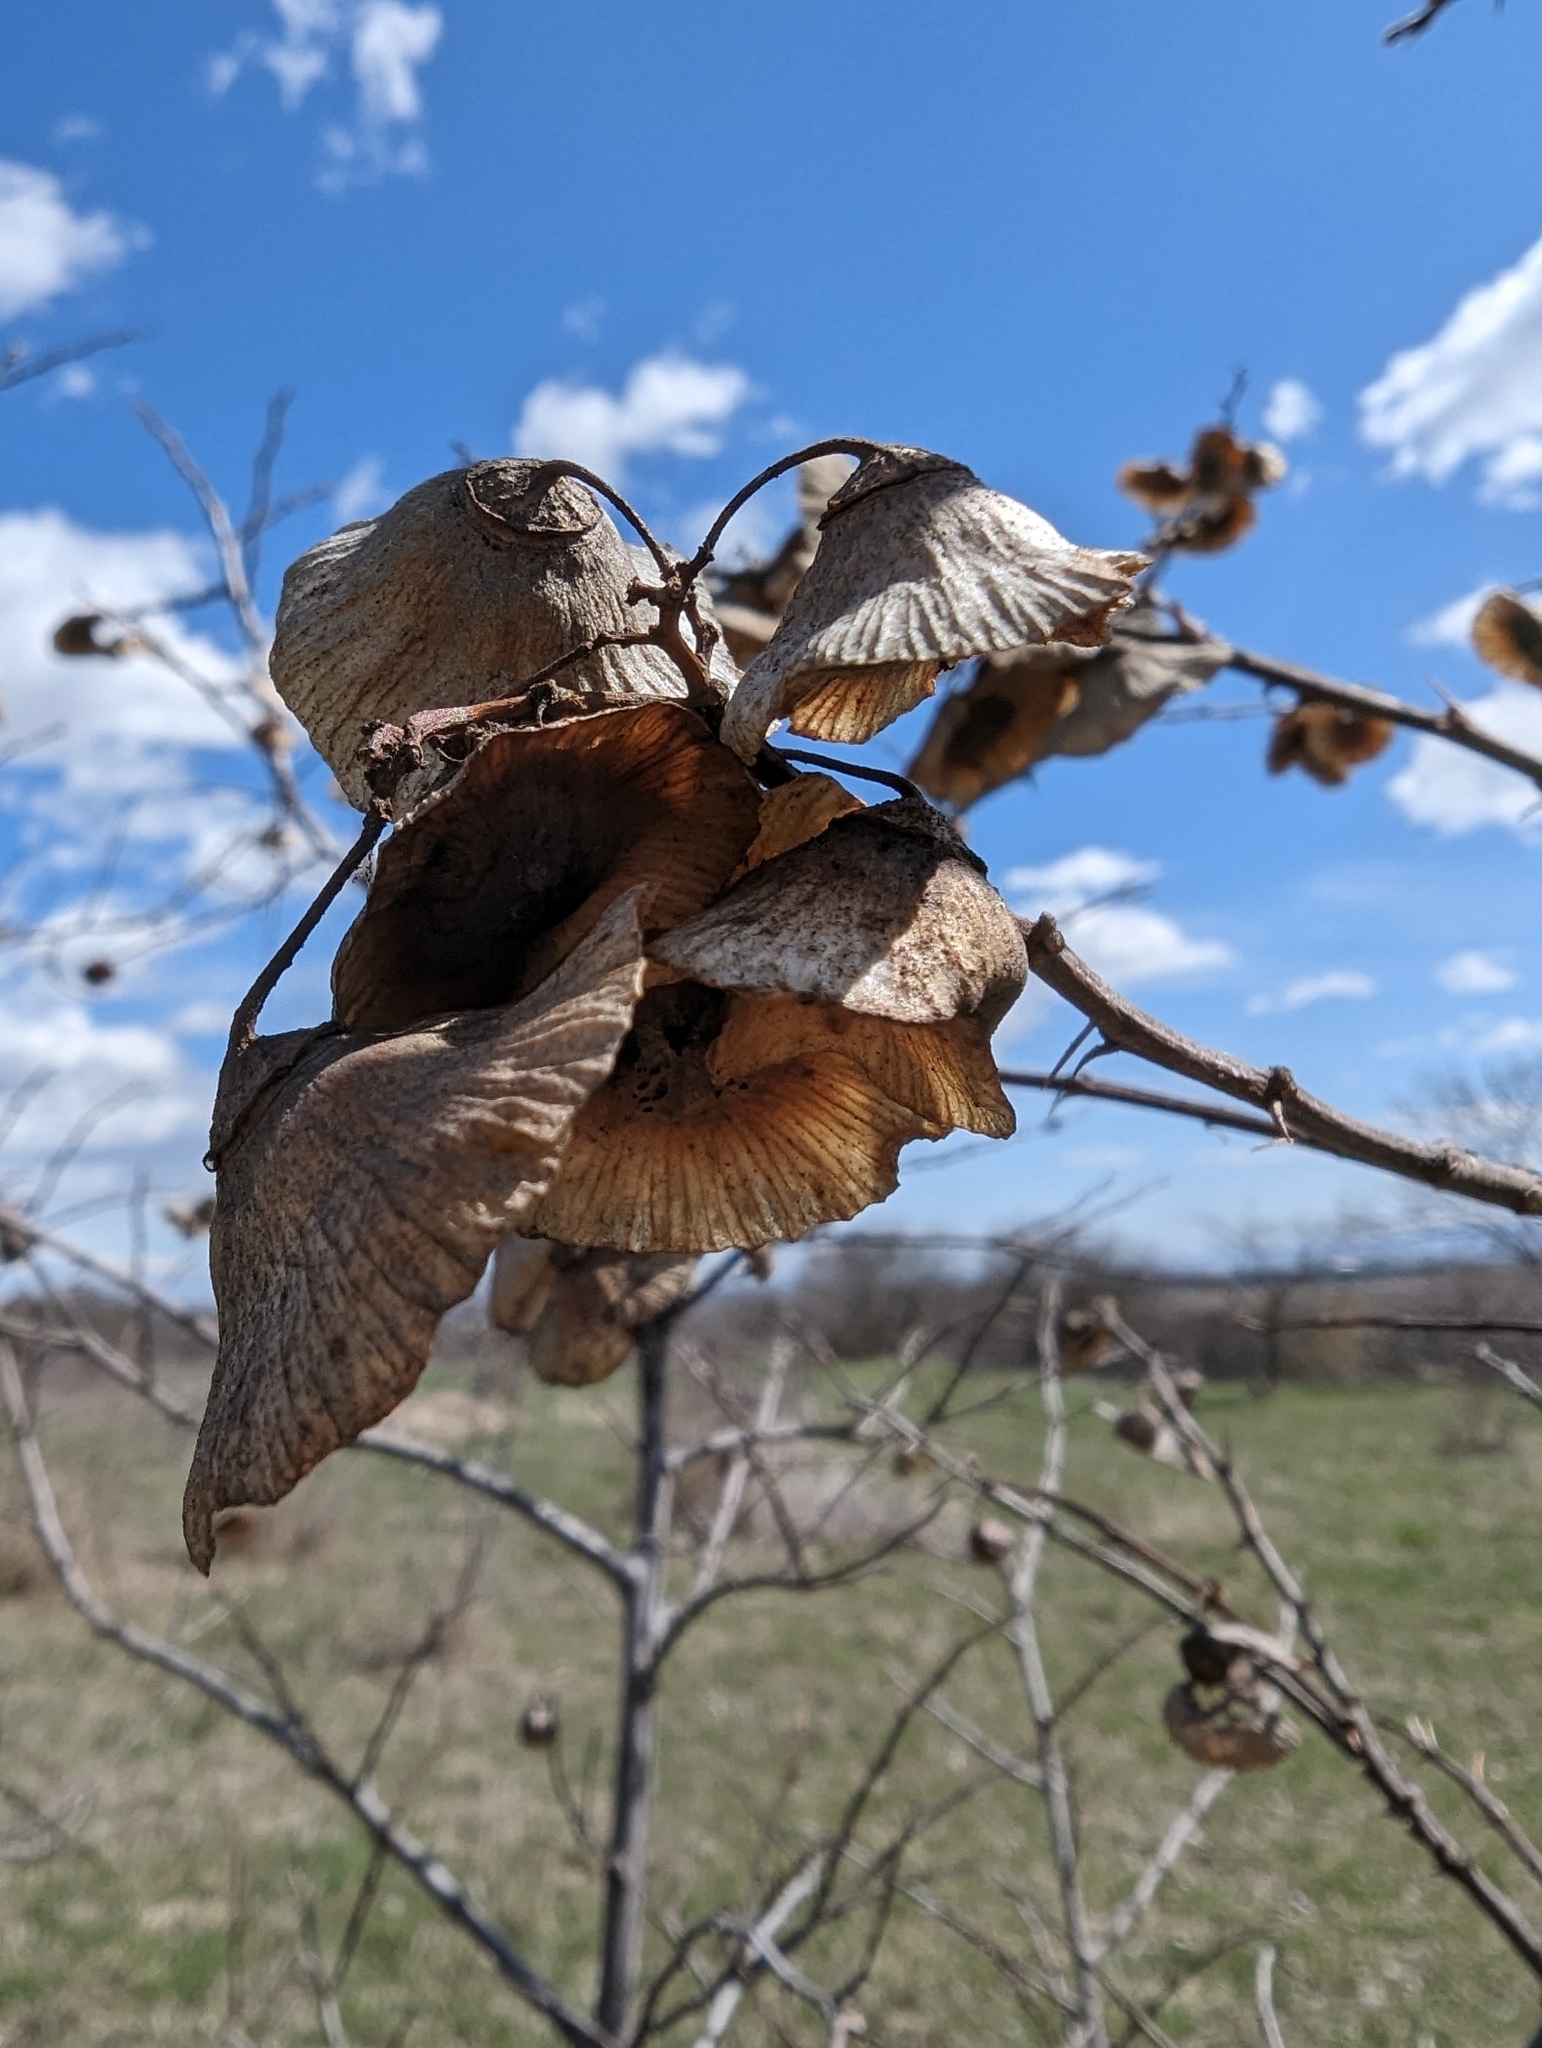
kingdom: Plantae
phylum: Tracheophyta
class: Magnoliopsida
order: Rosales
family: Rhamnaceae
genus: Paliurus
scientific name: Paliurus spina-christi
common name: Jeruselem thorn
